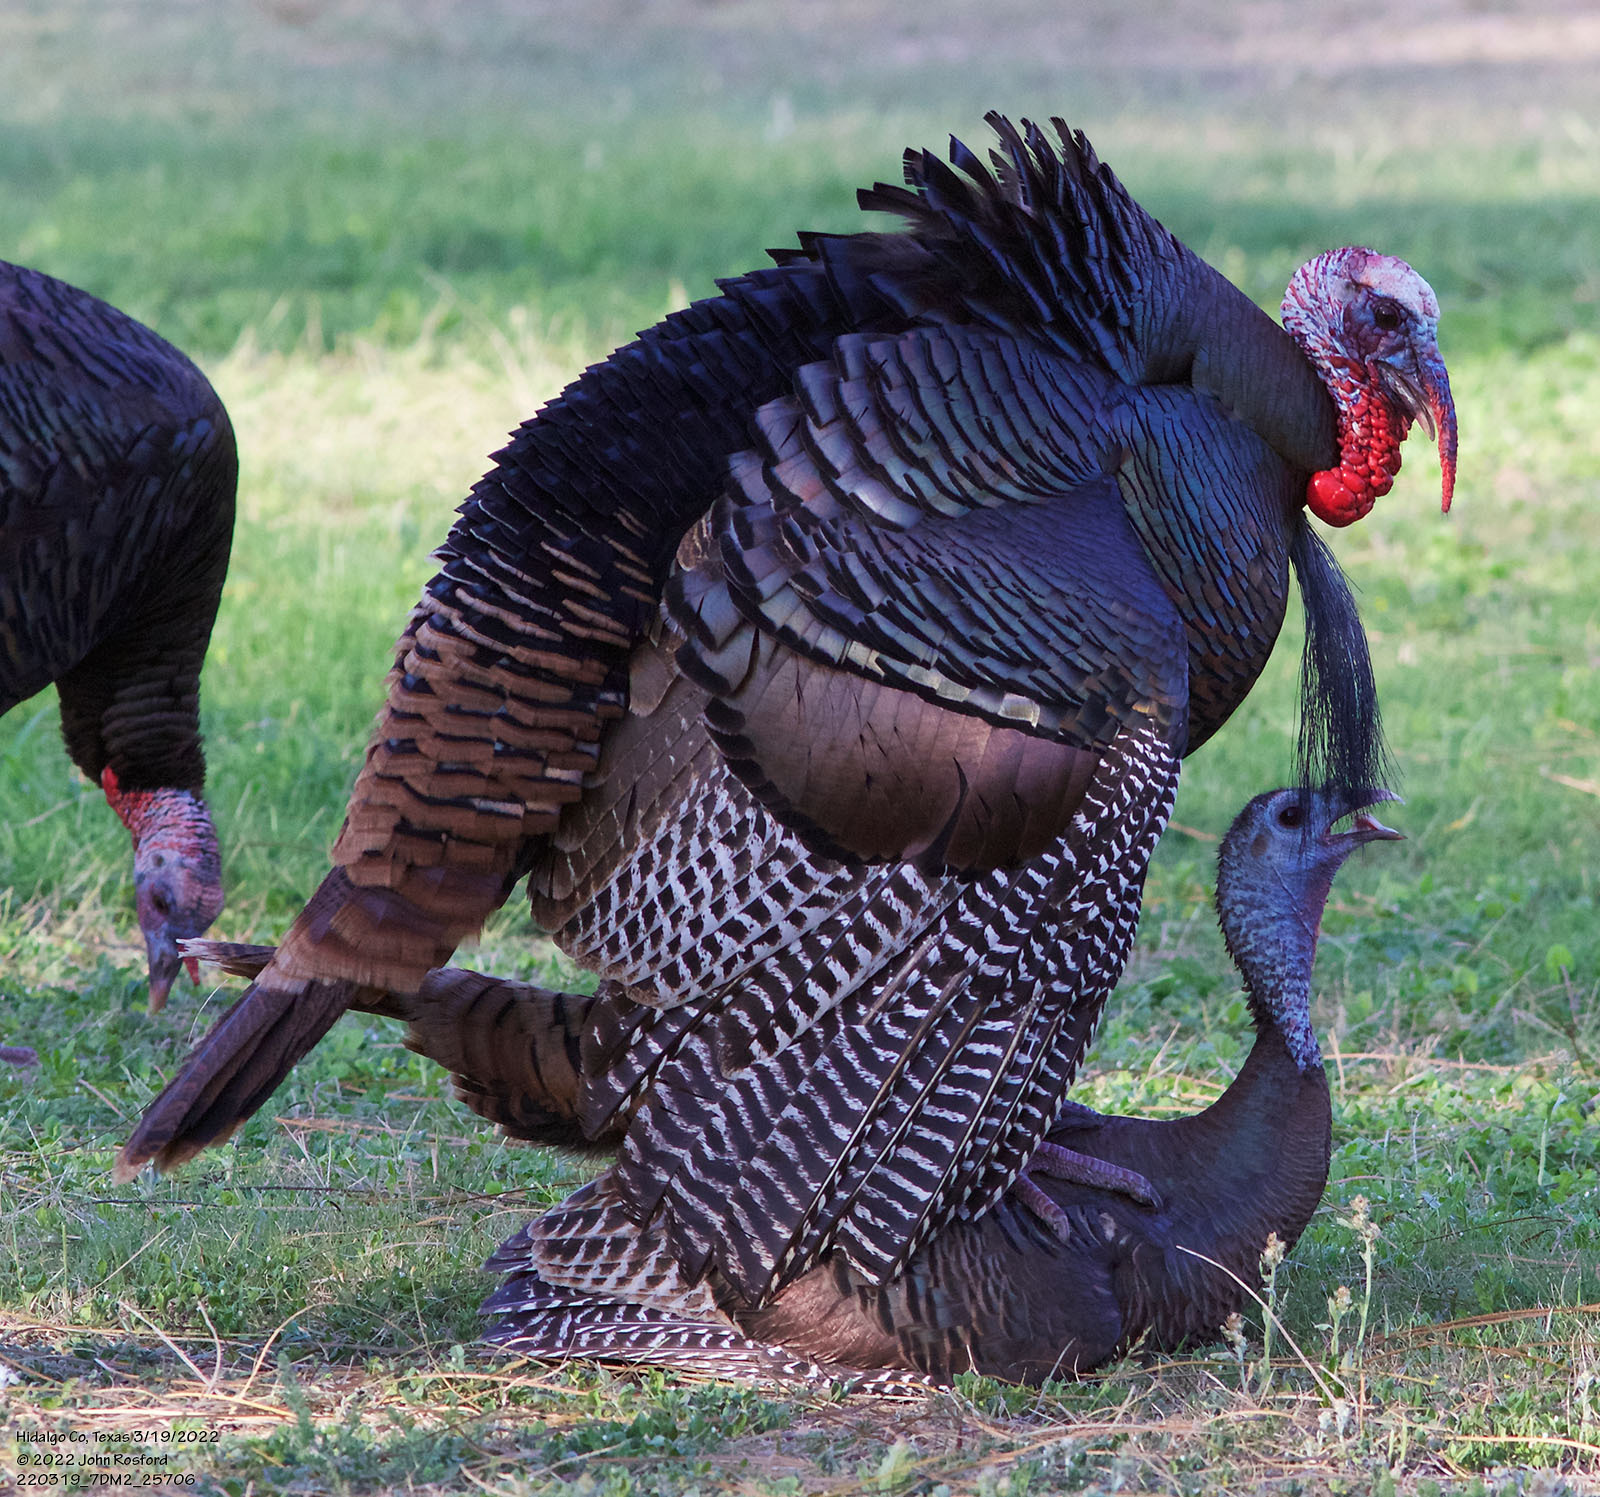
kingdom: Animalia
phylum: Chordata
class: Aves
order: Galliformes
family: Phasianidae
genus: Meleagris
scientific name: Meleagris gallopavo
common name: Wild turkey
